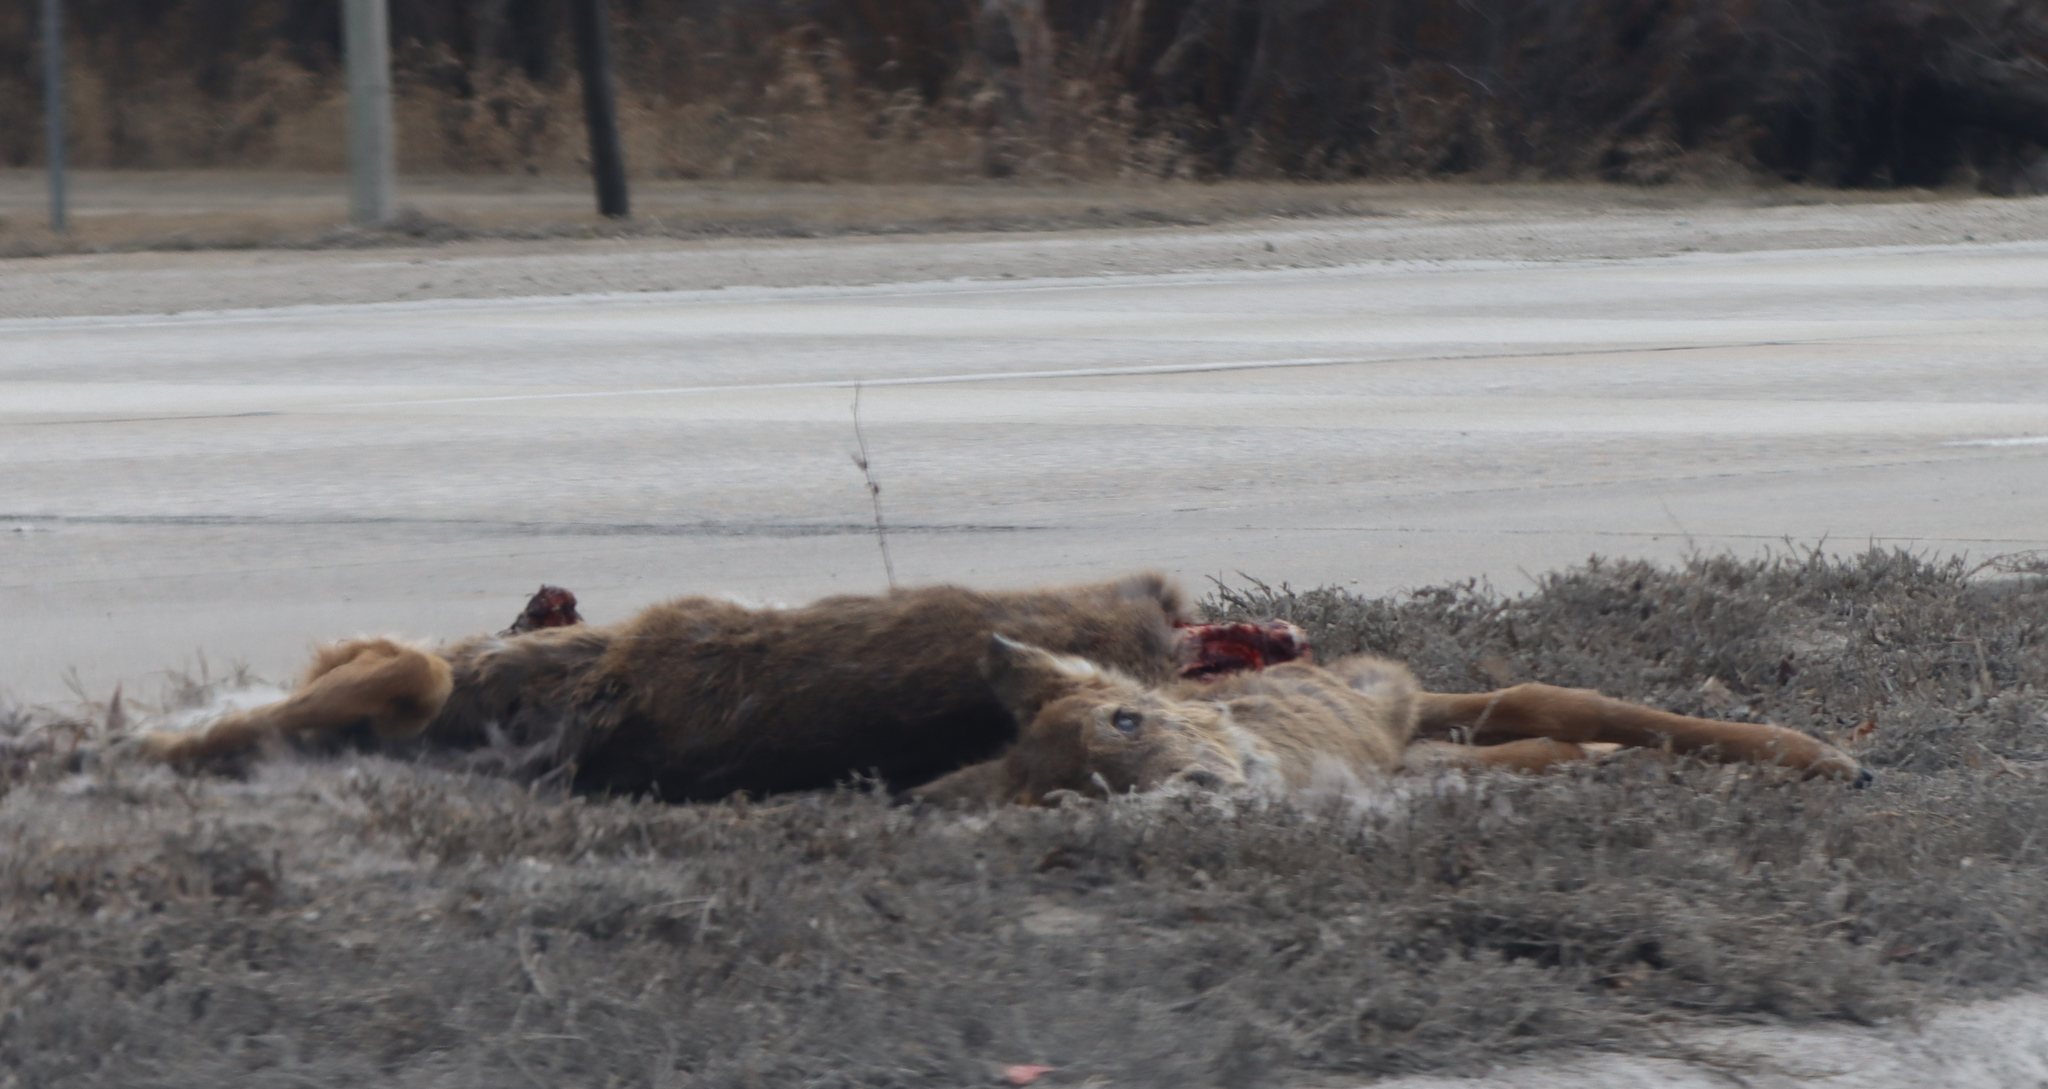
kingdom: Animalia
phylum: Chordata
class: Mammalia
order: Artiodactyla
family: Cervidae
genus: Odocoileus
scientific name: Odocoileus virginianus
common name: White-tailed deer
